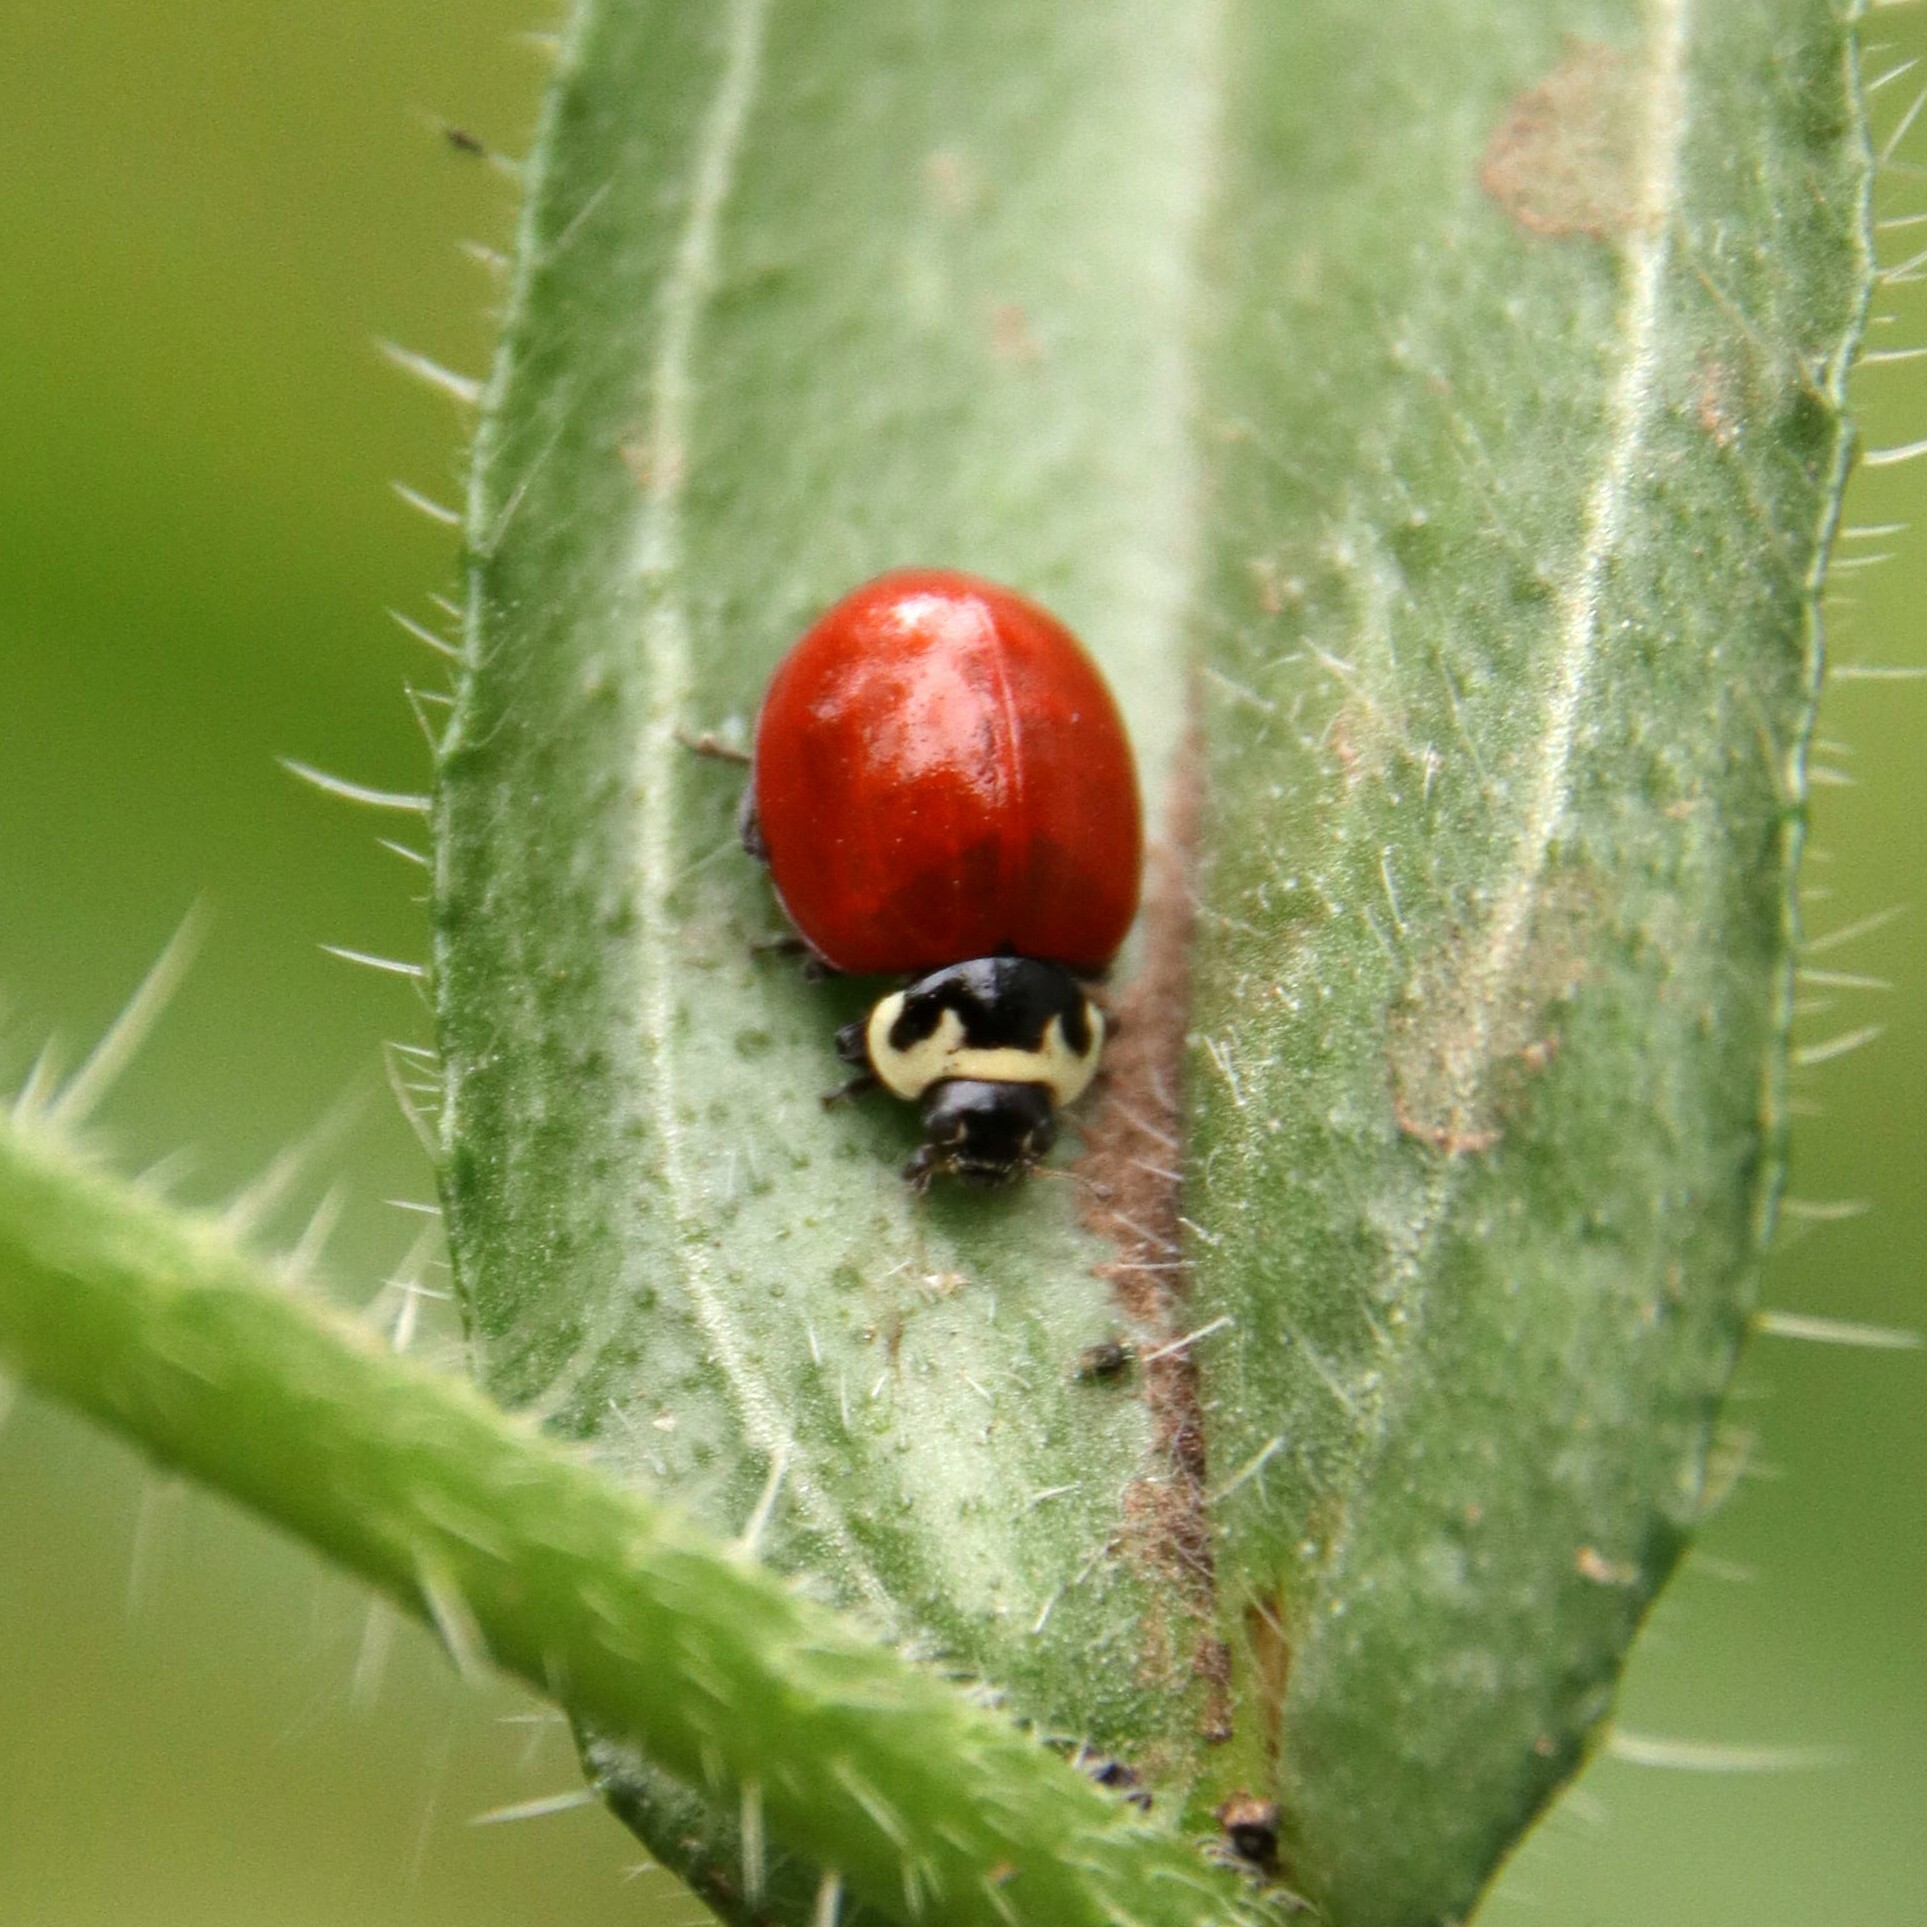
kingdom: Animalia
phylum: Arthropoda
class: Insecta
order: Coleoptera
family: Coccinellidae
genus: Cycloneda
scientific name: Cycloneda
